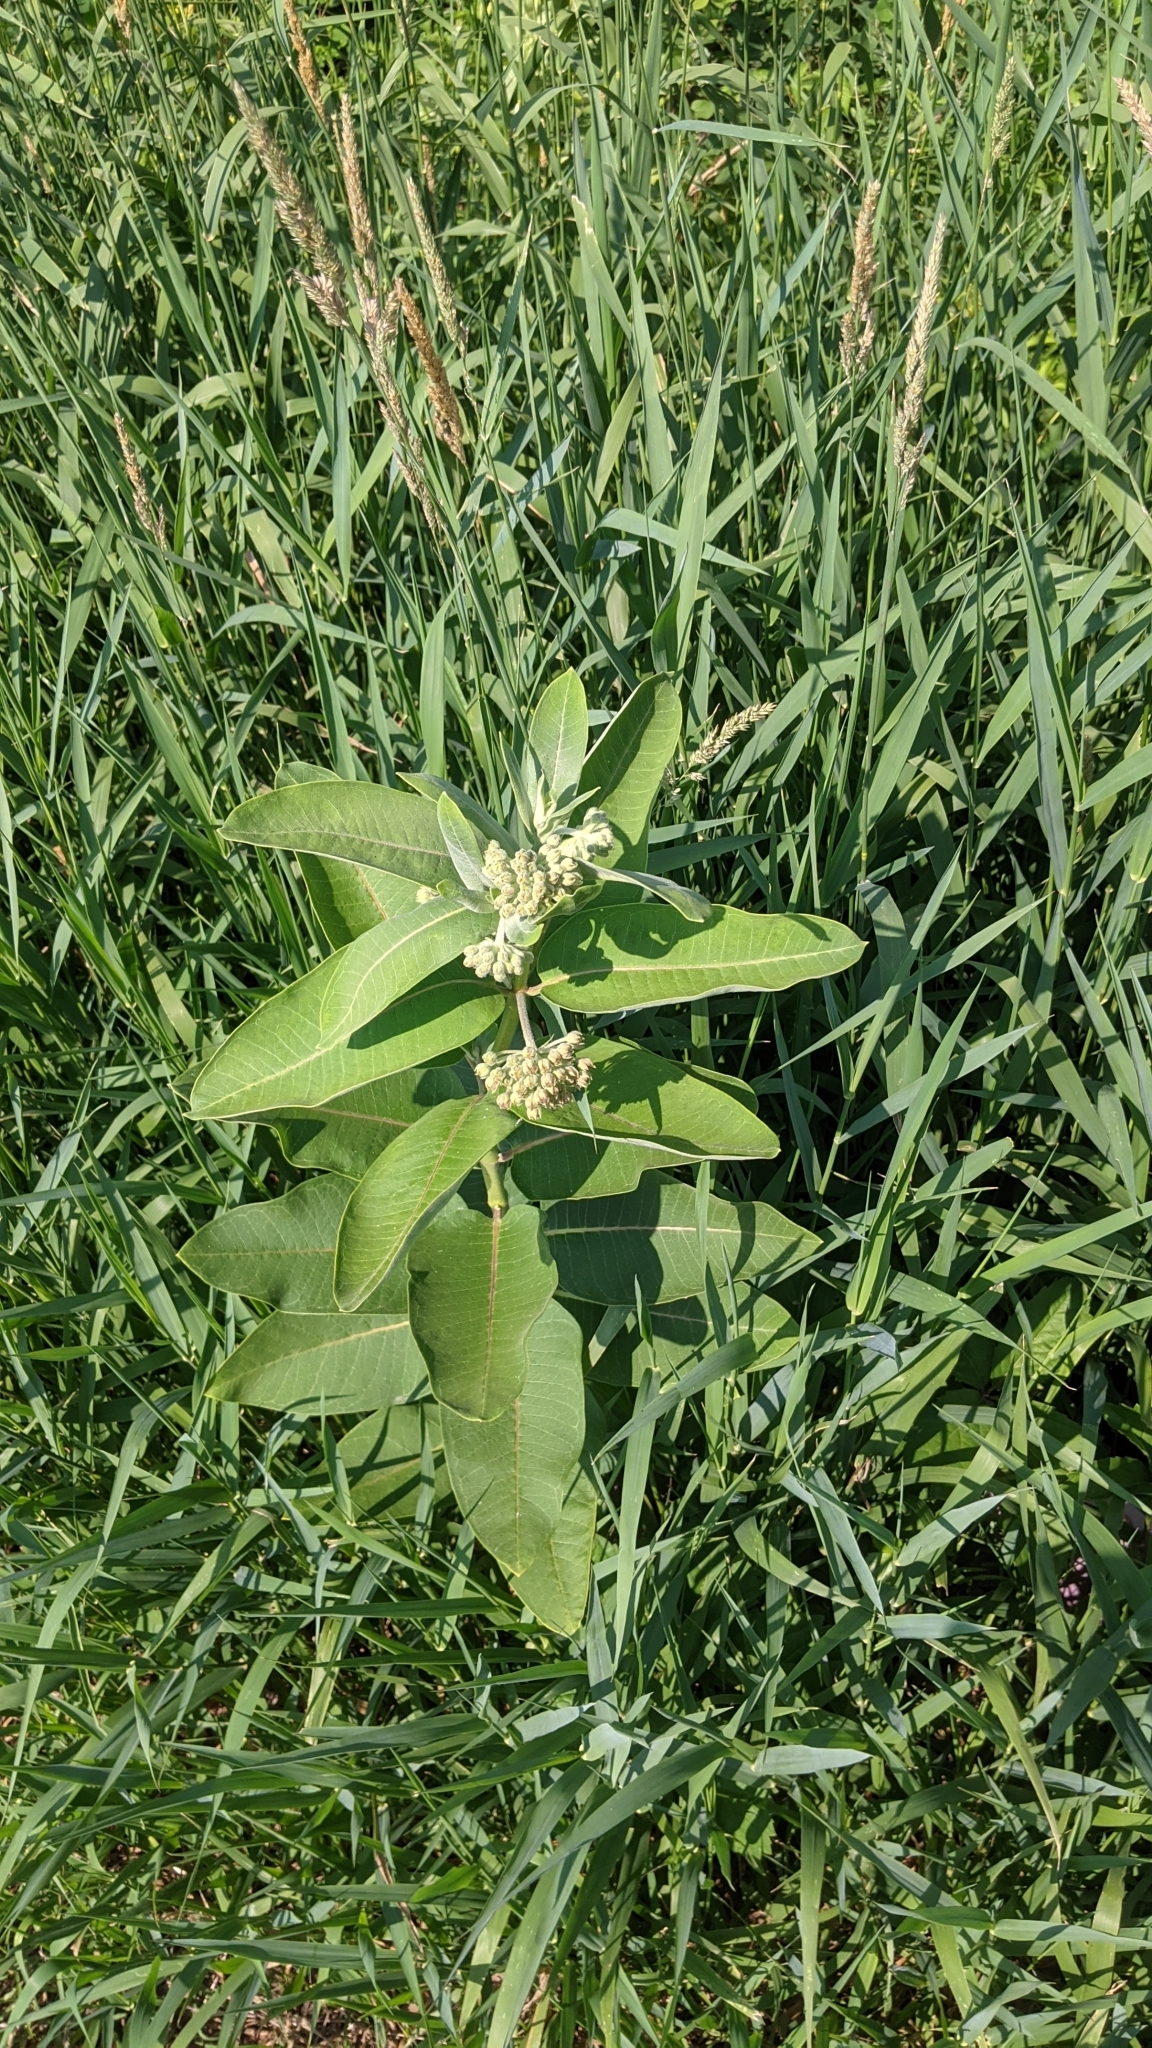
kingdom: Plantae
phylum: Tracheophyta
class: Magnoliopsida
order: Gentianales
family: Apocynaceae
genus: Asclepias
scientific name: Asclepias syriaca
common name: Common milkweed
